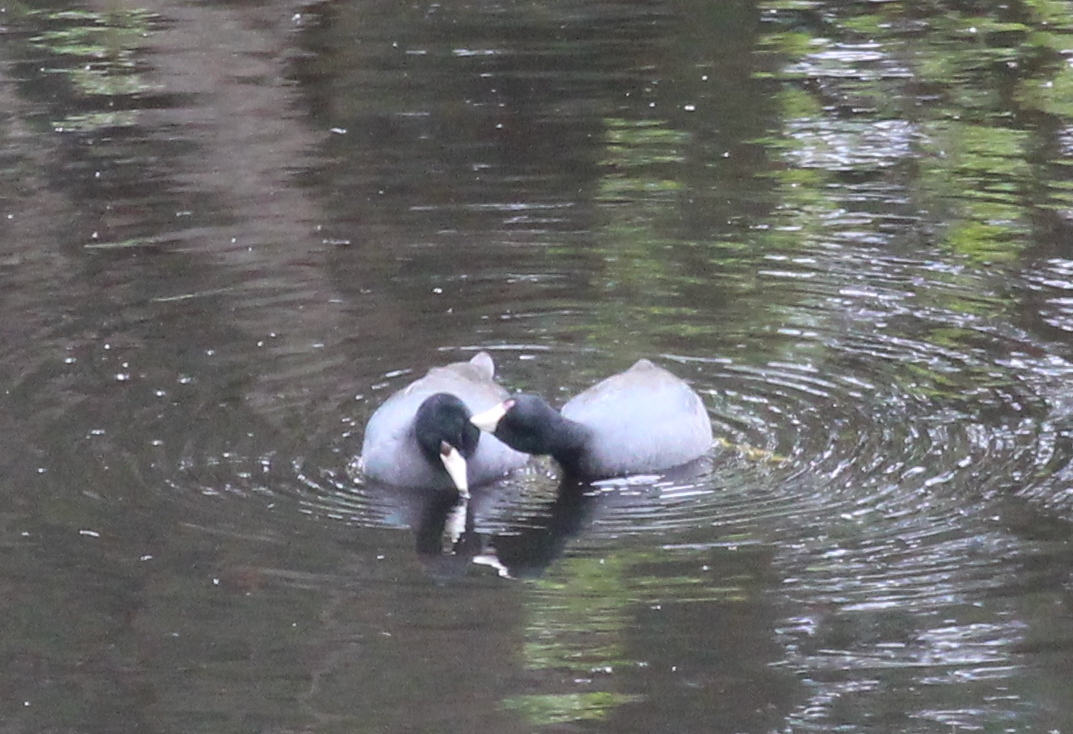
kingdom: Animalia
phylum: Chordata
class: Aves
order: Gruiformes
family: Rallidae
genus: Fulica
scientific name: Fulica americana
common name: American coot
